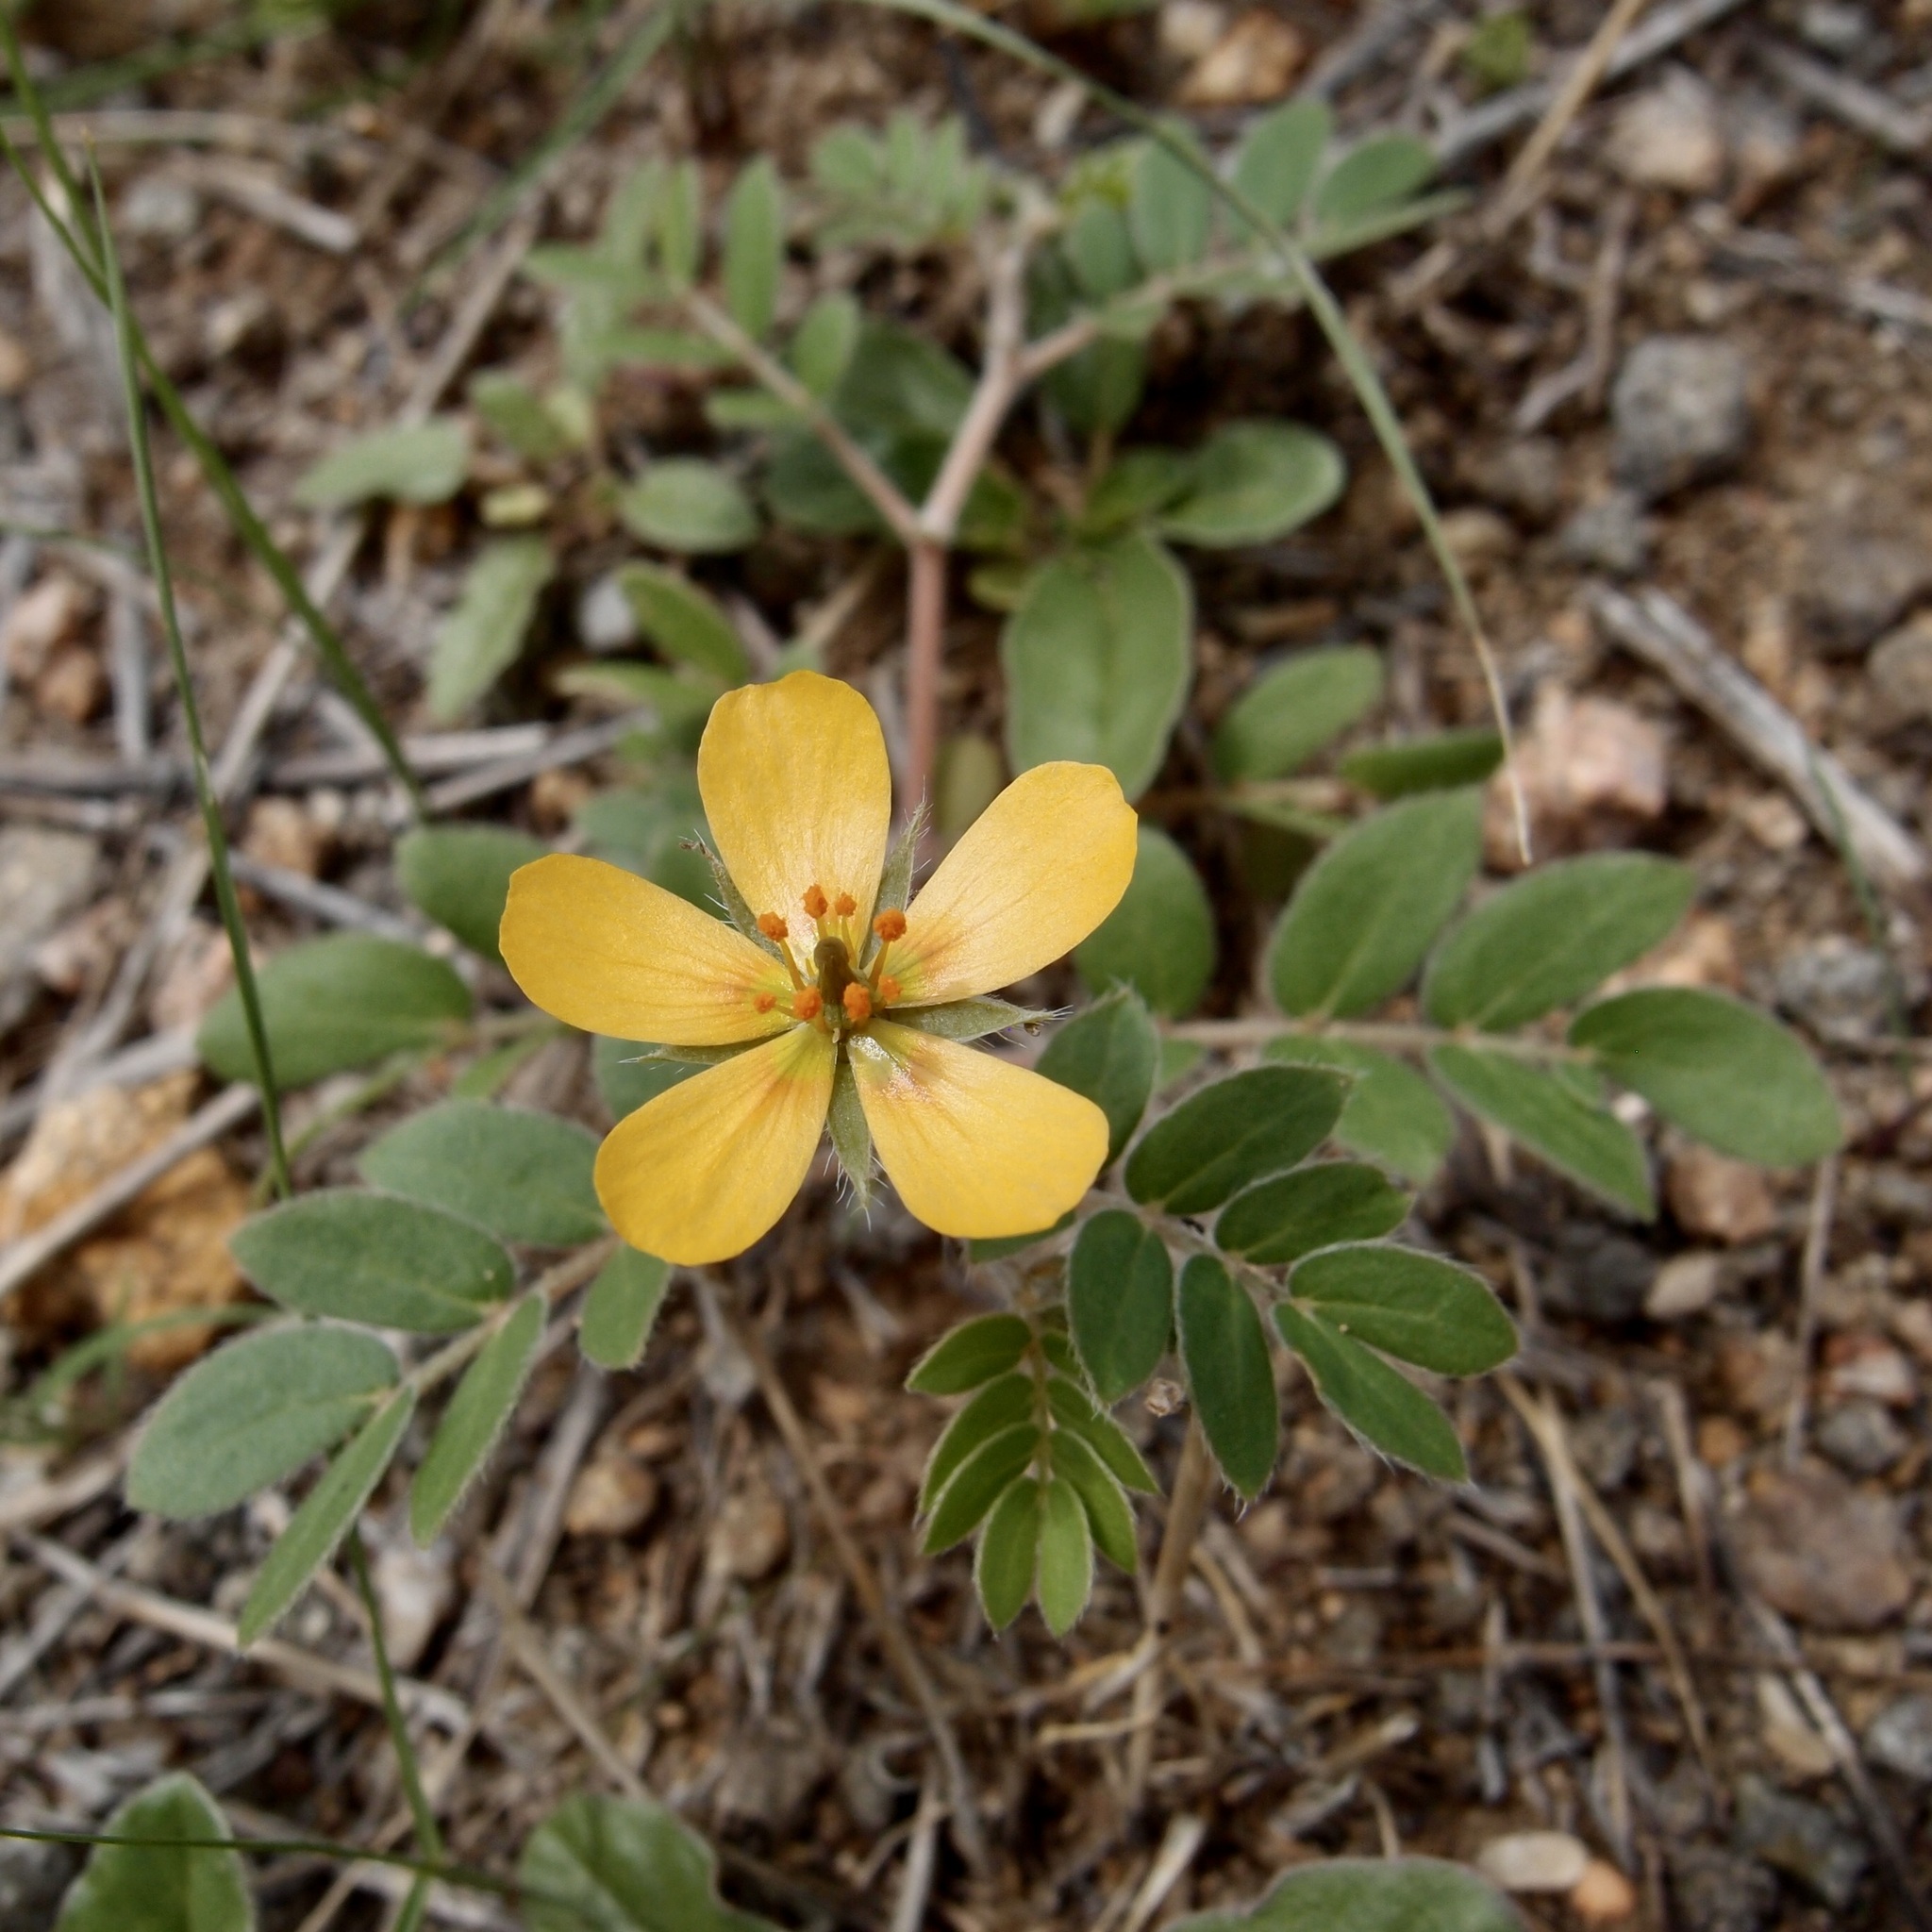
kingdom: Plantae
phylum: Tracheophyta
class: Magnoliopsida
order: Zygophyllales
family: Zygophyllaceae
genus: Kallstroemia
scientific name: Kallstroemia parviflora
